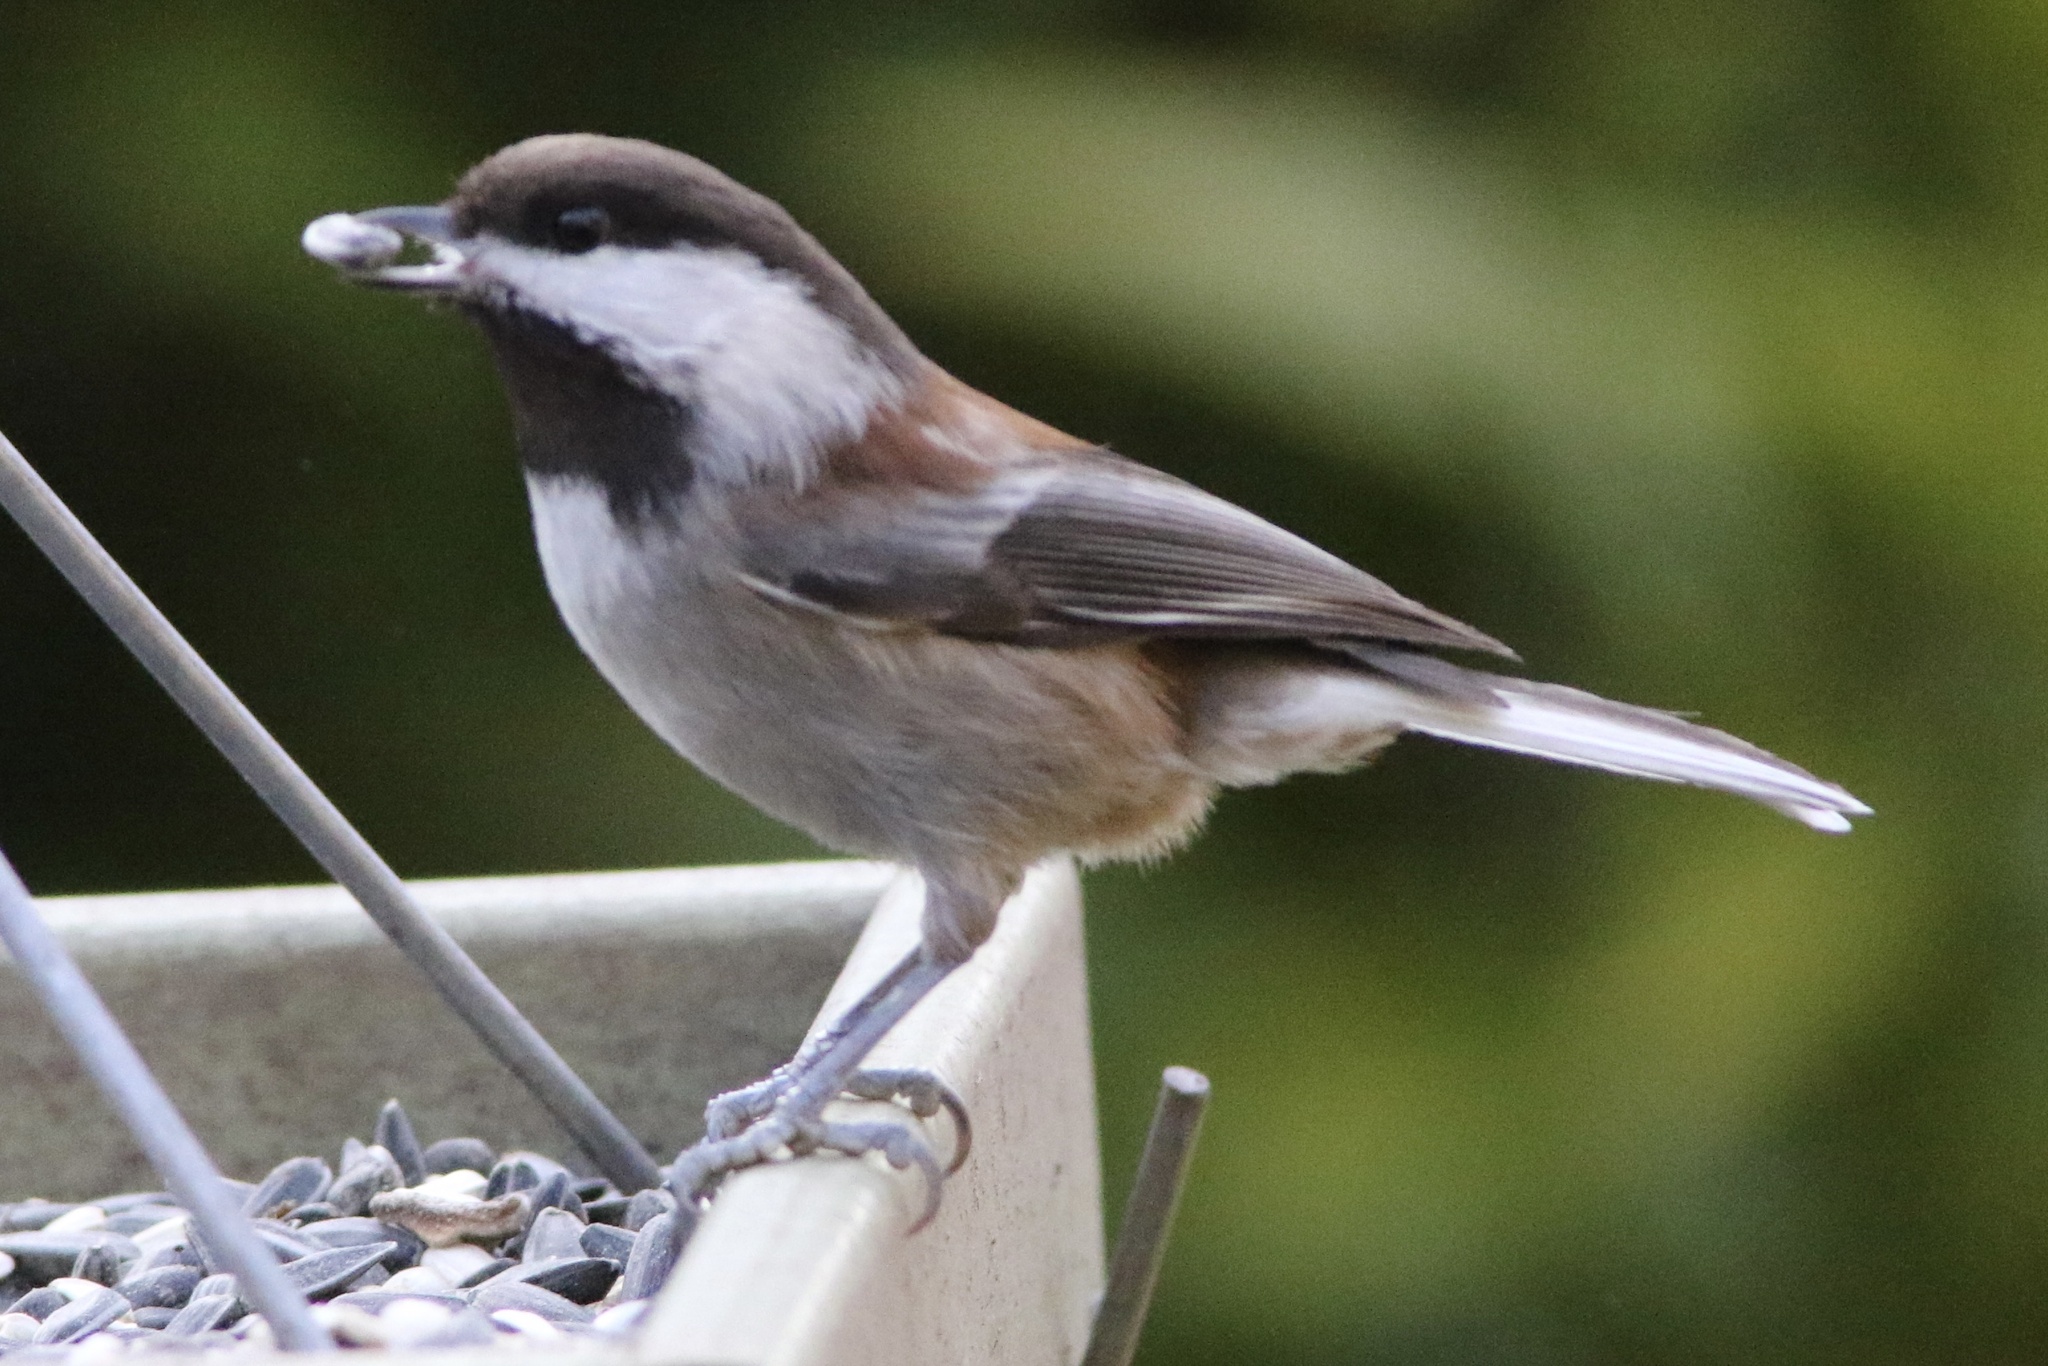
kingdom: Animalia
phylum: Chordata
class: Aves
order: Passeriformes
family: Paridae
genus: Poecile
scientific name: Poecile rufescens
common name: Chestnut-backed chickadee
